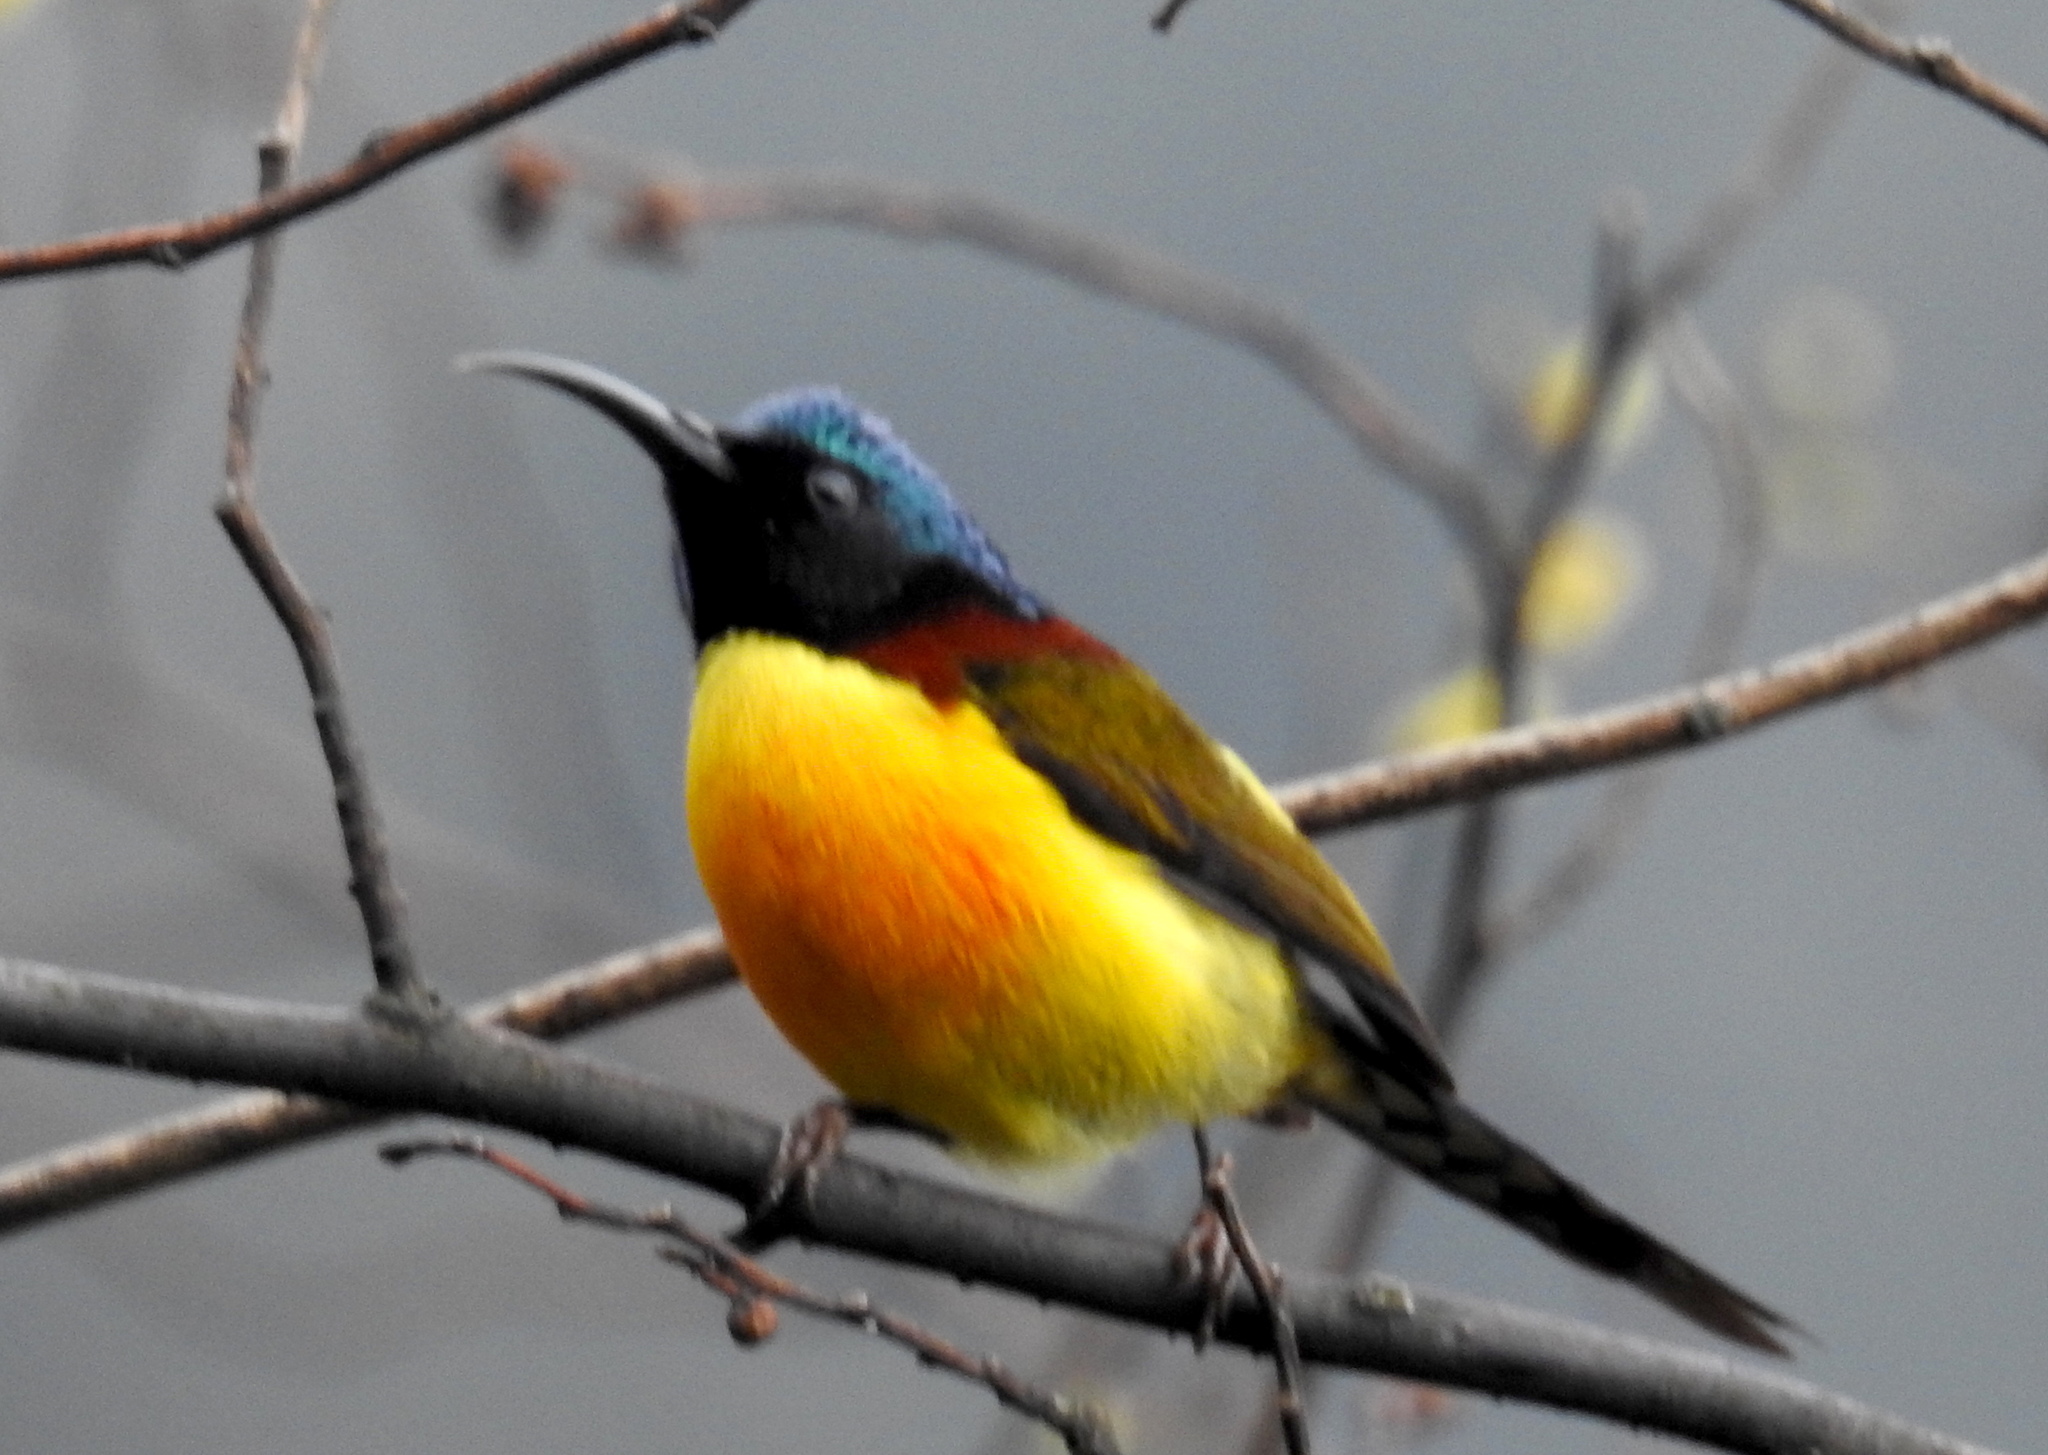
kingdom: Animalia
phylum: Chordata
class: Aves
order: Passeriformes
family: Nectariniidae
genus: Aethopyga
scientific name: Aethopyga nipalensis
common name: Green-tailed sunbird
